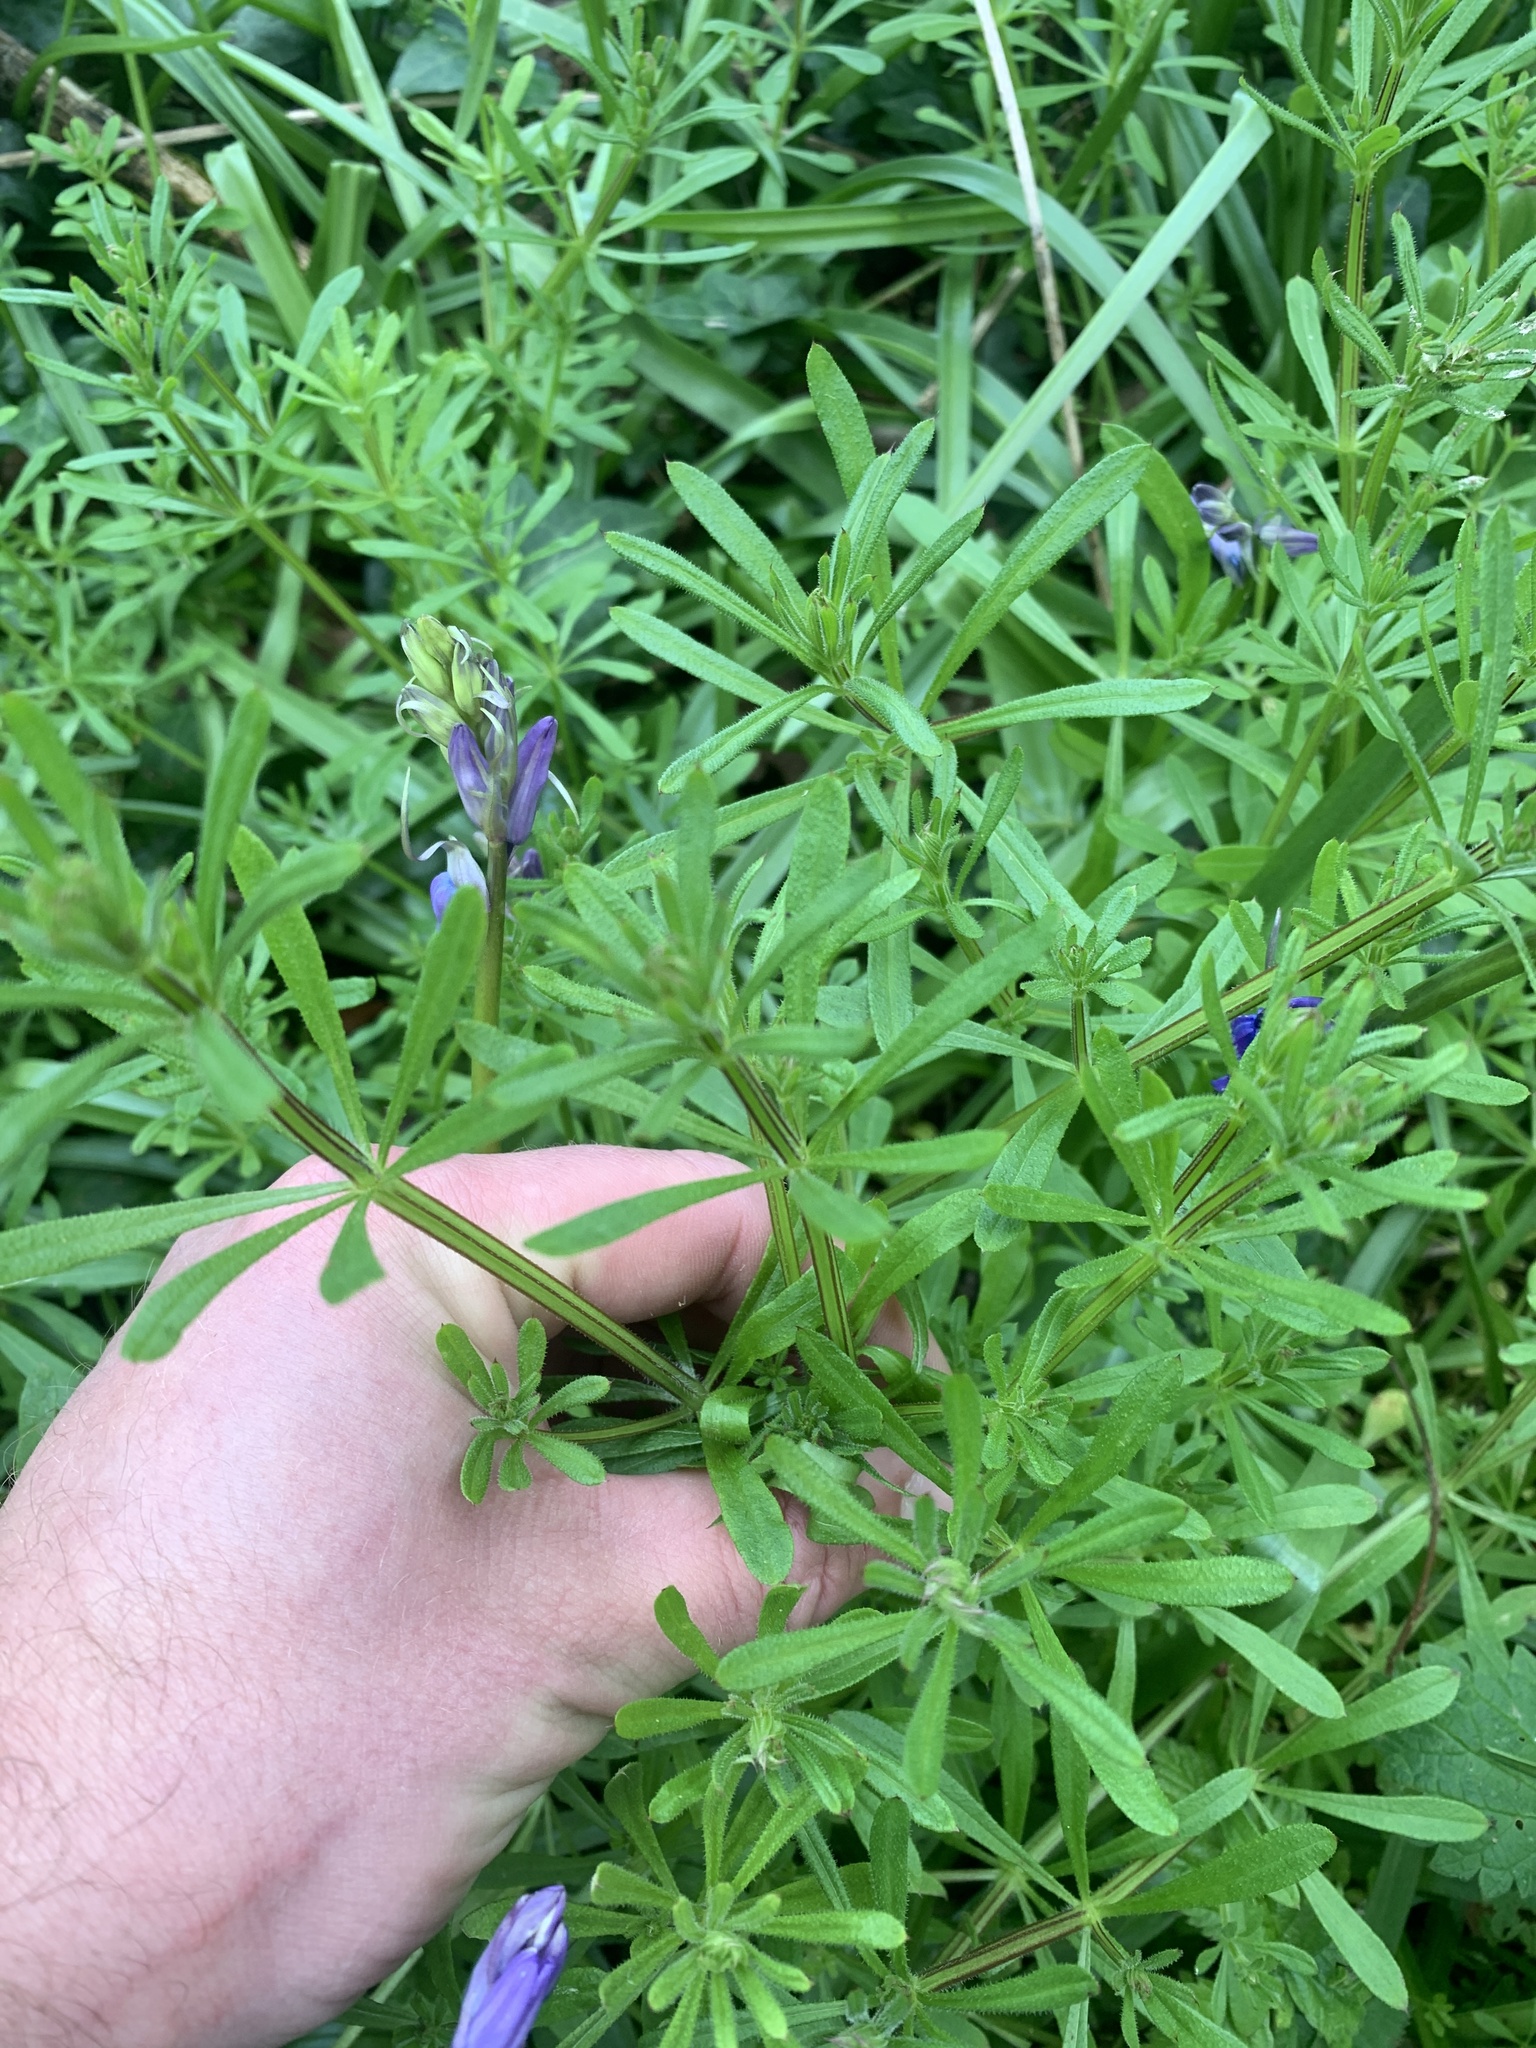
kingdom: Plantae
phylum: Tracheophyta
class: Magnoliopsida
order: Gentianales
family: Rubiaceae
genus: Galium
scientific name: Galium aparine
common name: Cleavers
